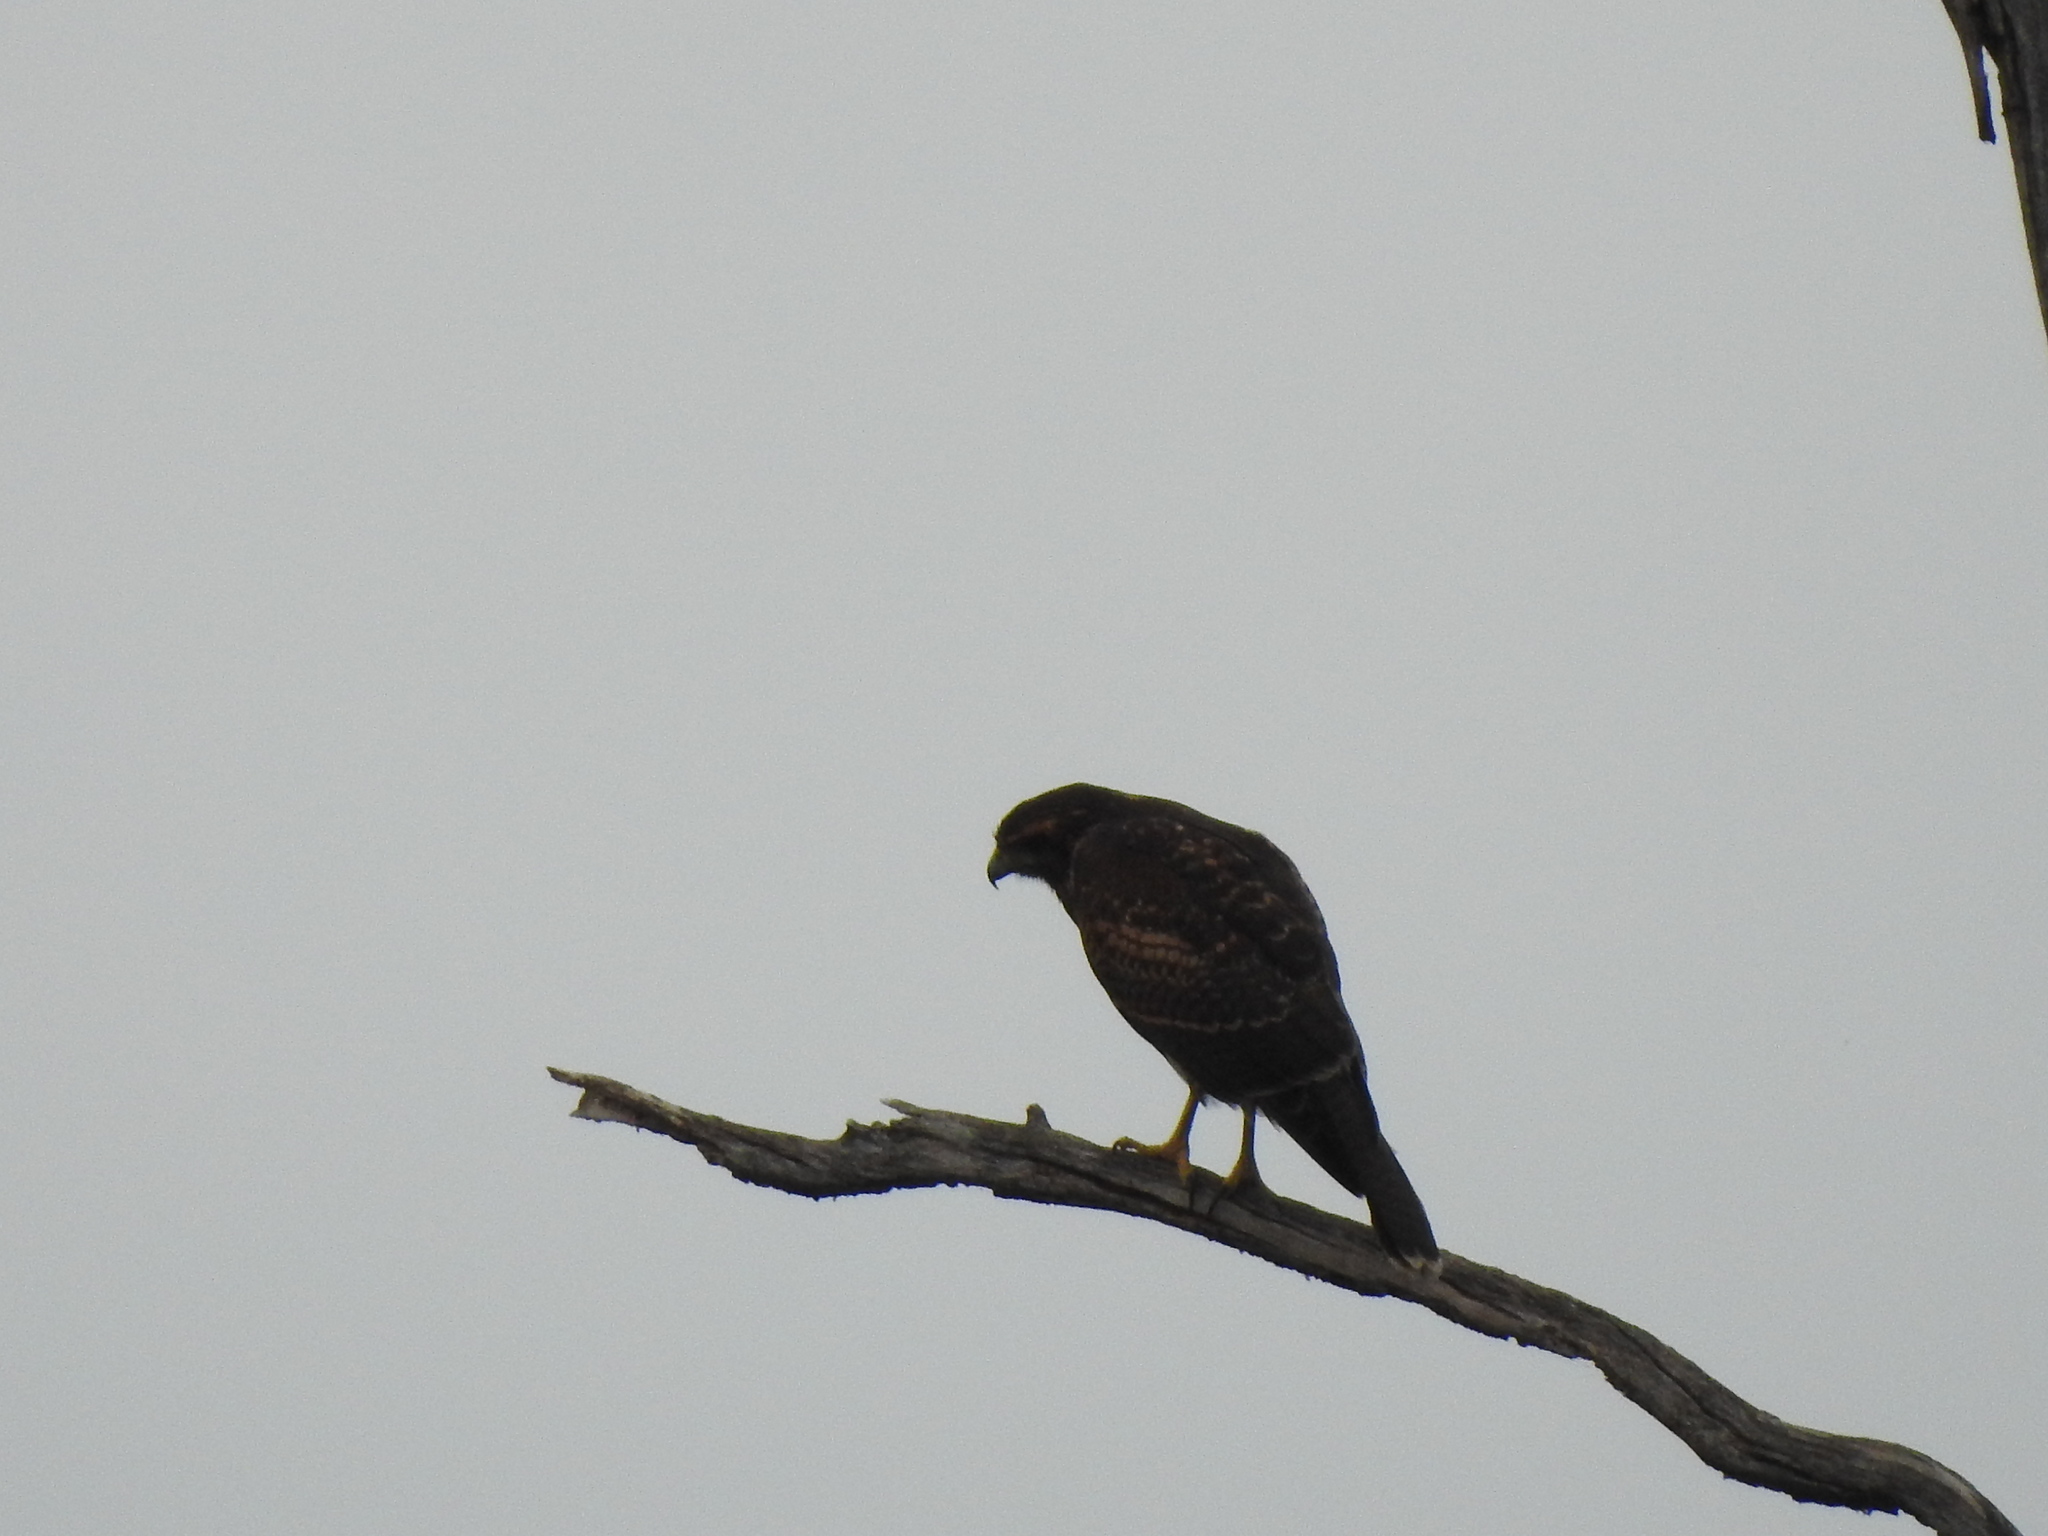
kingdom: Animalia
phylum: Chordata
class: Aves
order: Accipitriformes
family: Accipitridae
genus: Parabuteo
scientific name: Parabuteo unicinctus
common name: Harris's hawk
